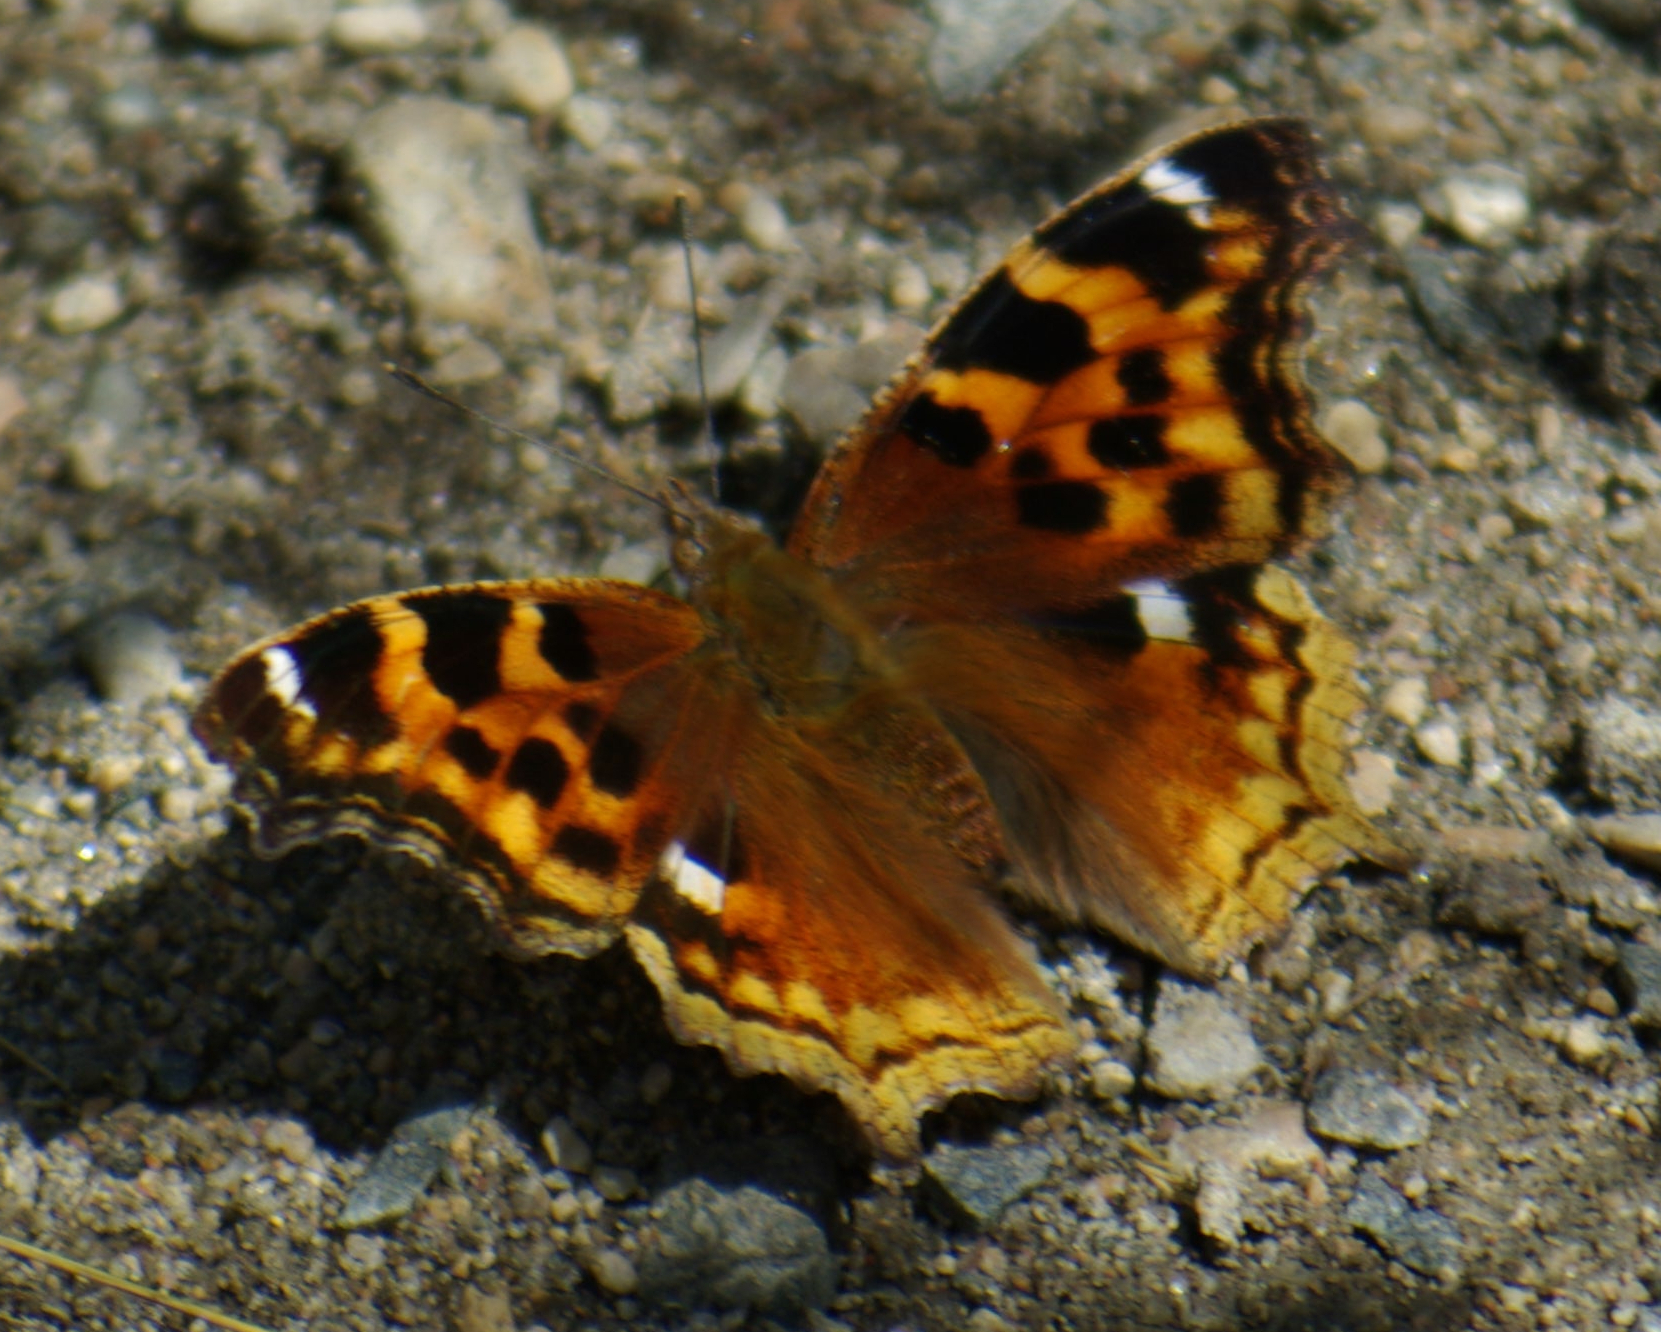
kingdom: Animalia
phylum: Arthropoda
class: Insecta
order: Lepidoptera
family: Nymphalidae
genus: Polygonia
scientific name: Polygonia vaualbum
